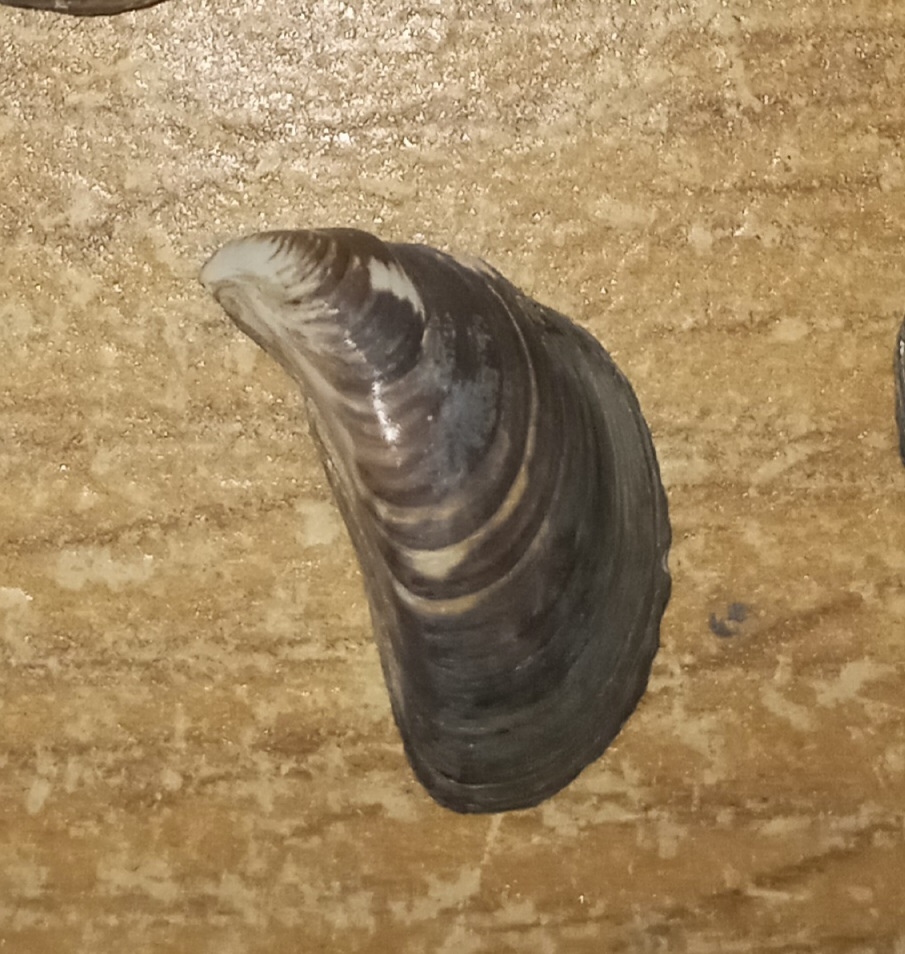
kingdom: Animalia
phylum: Mollusca
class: Bivalvia
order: Myida
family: Dreissenidae
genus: Dreissena
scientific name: Dreissena bugensis
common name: Quagga mussel
